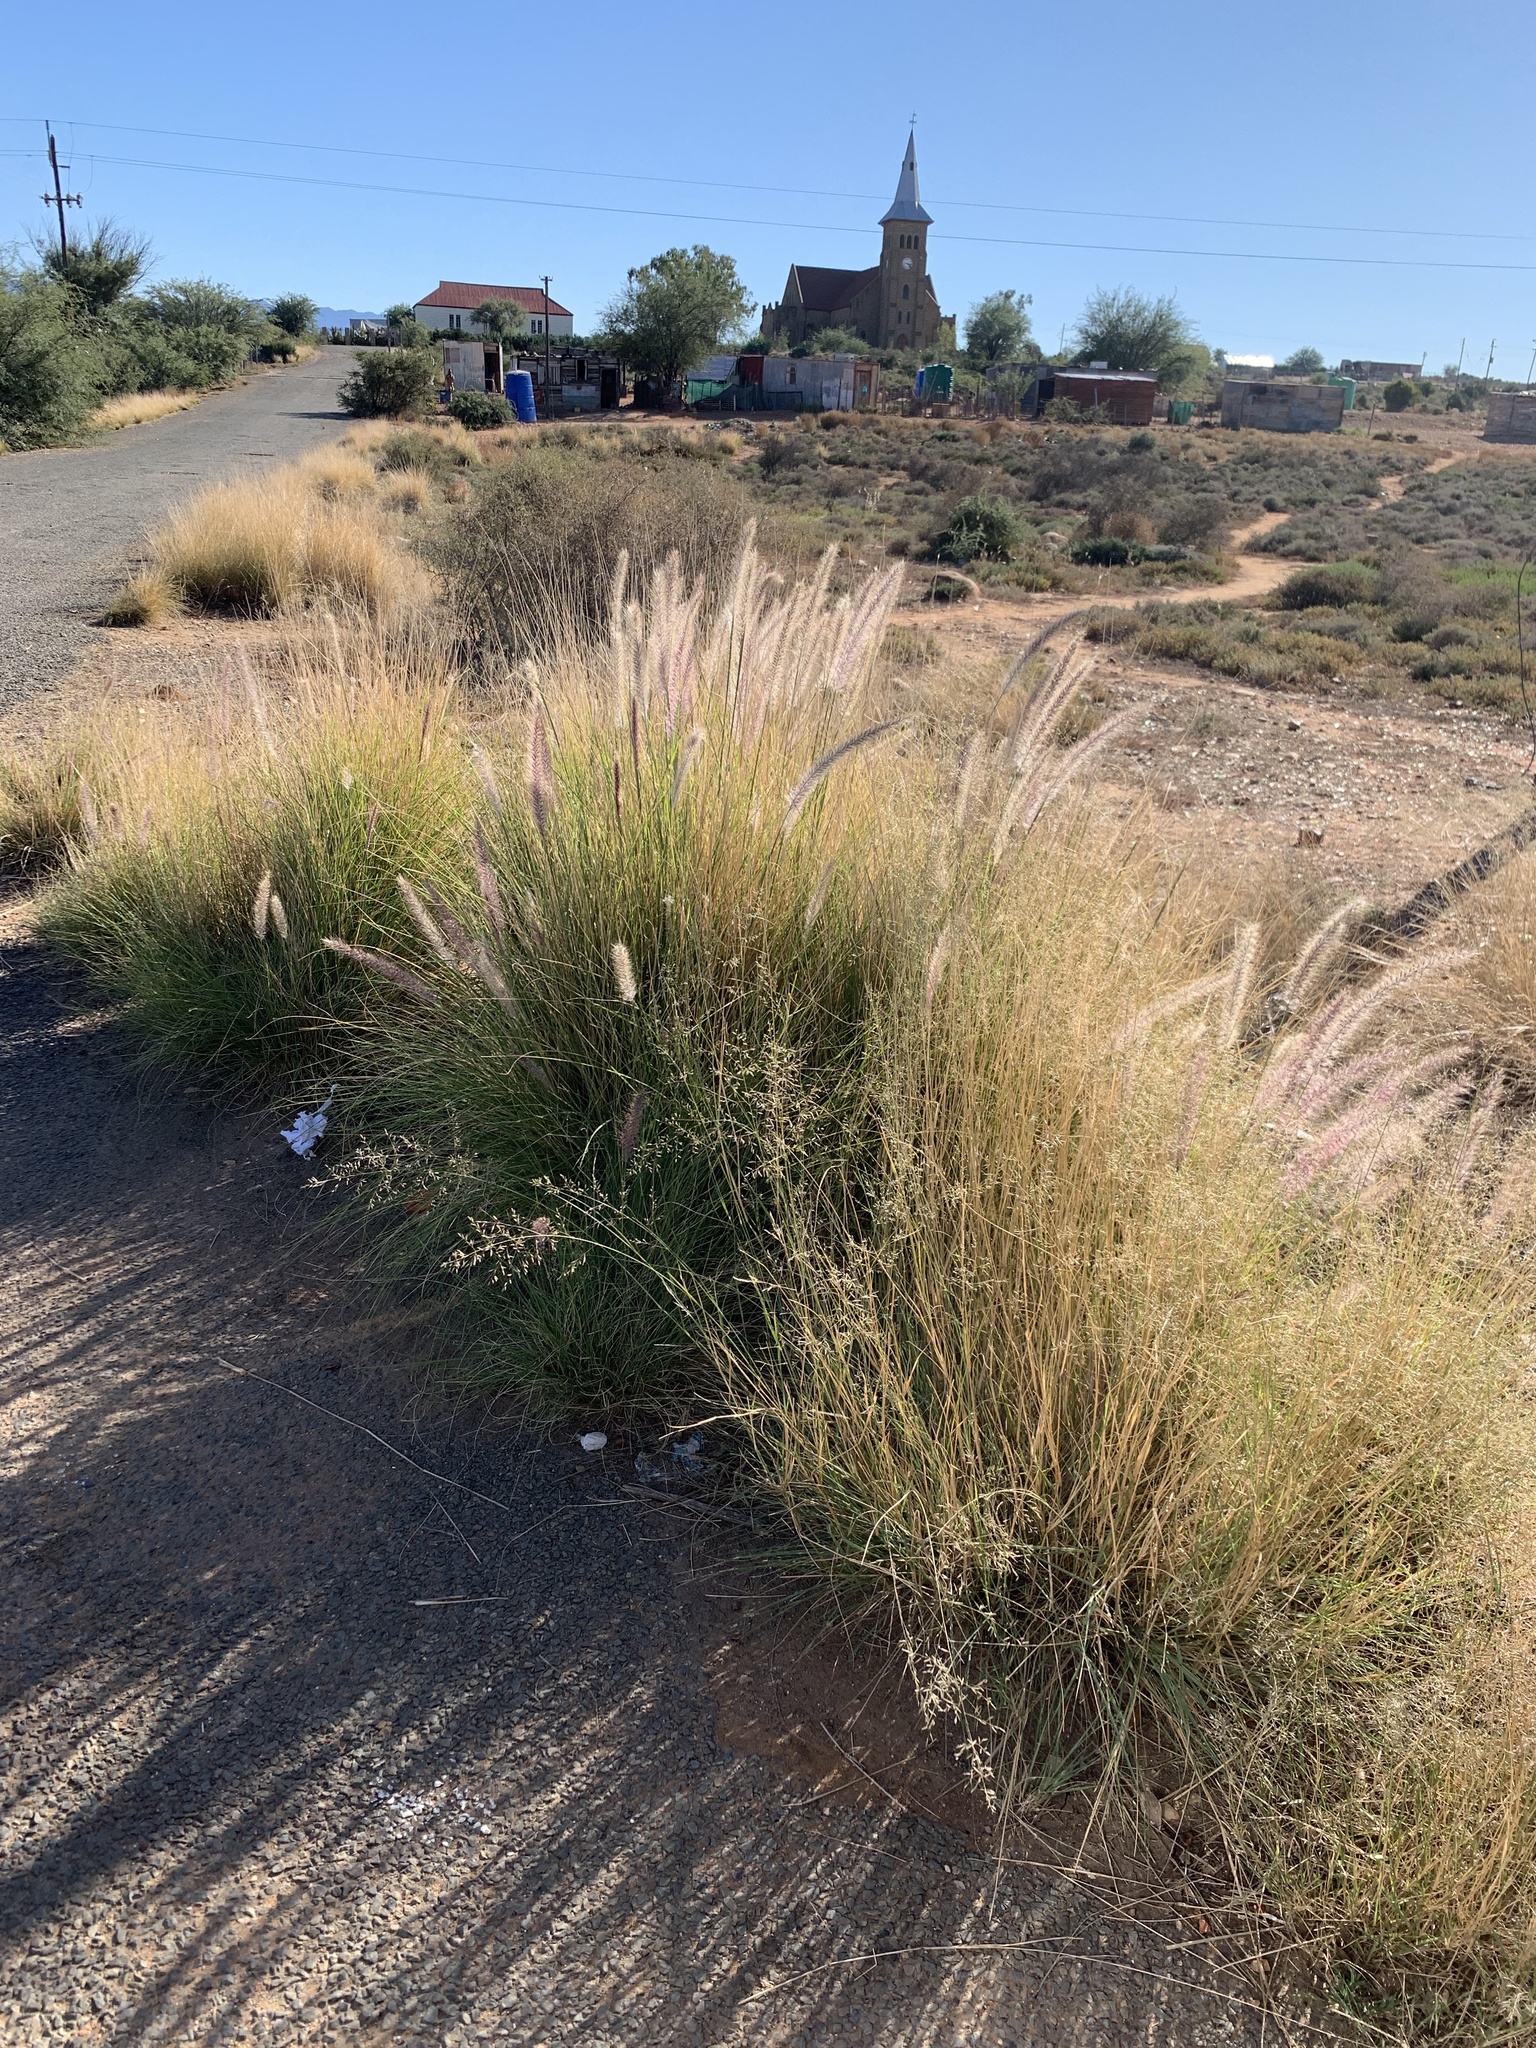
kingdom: Plantae
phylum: Tracheophyta
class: Liliopsida
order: Poales
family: Poaceae
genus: Cenchrus
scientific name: Cenchrus setaceus
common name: Crimson fountaingrass
